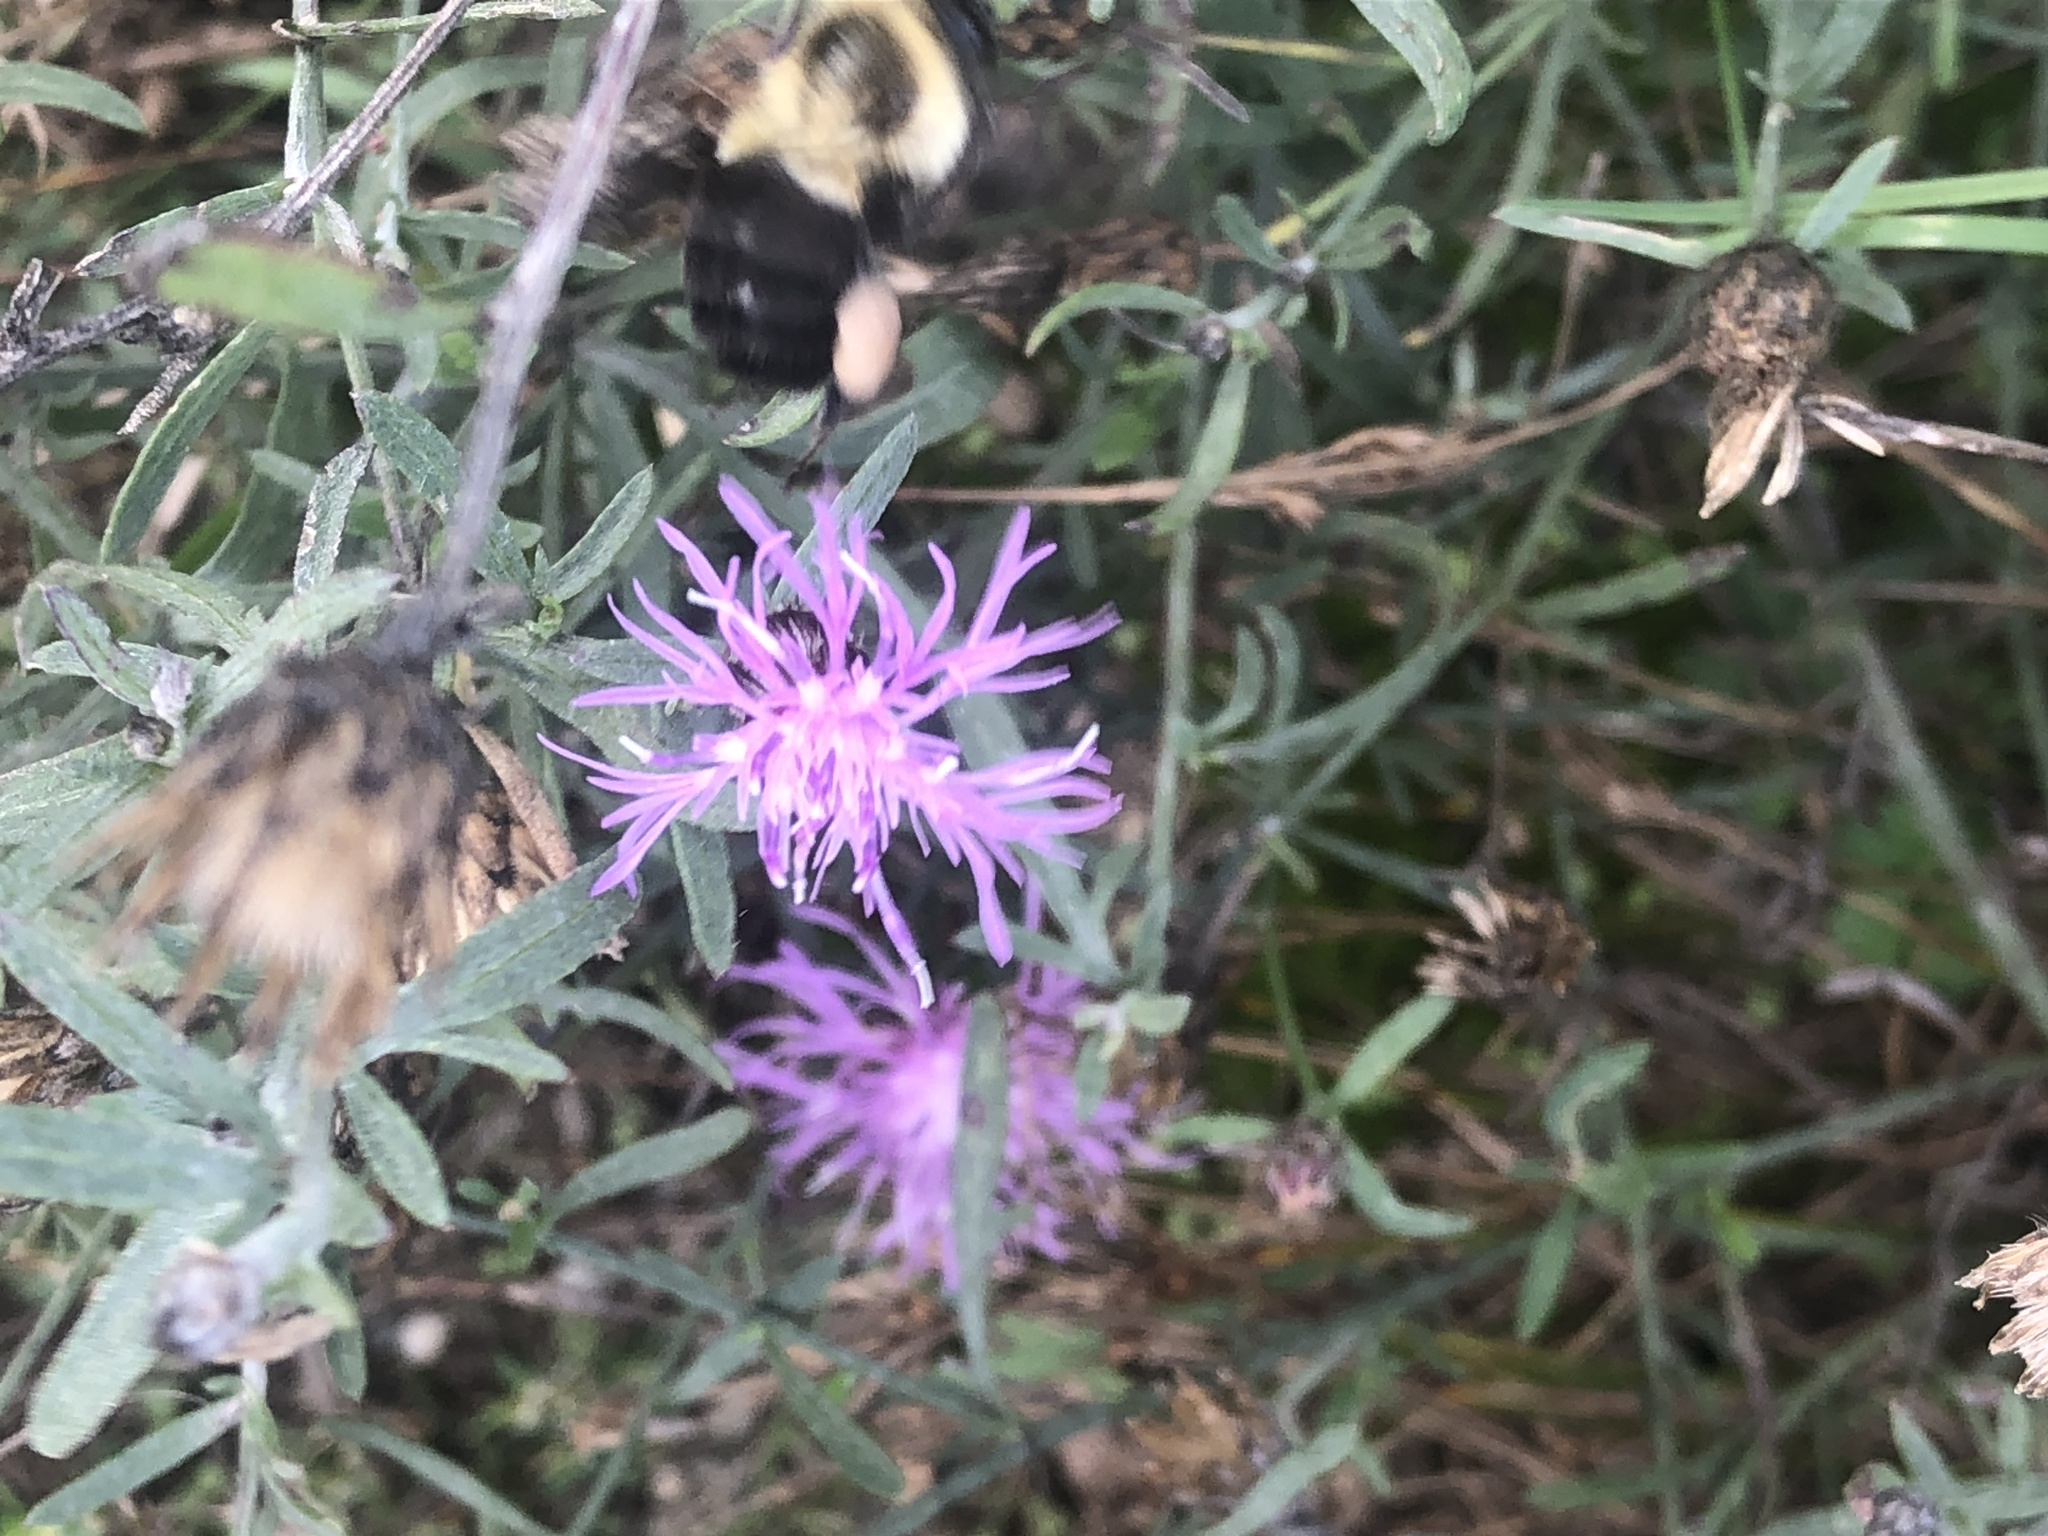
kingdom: Animalia
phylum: Arthropoda
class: Insecta
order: Hymenoptera
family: Apidae
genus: Bombus
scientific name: Bombus impatiens
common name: Common eastern bumble bee
